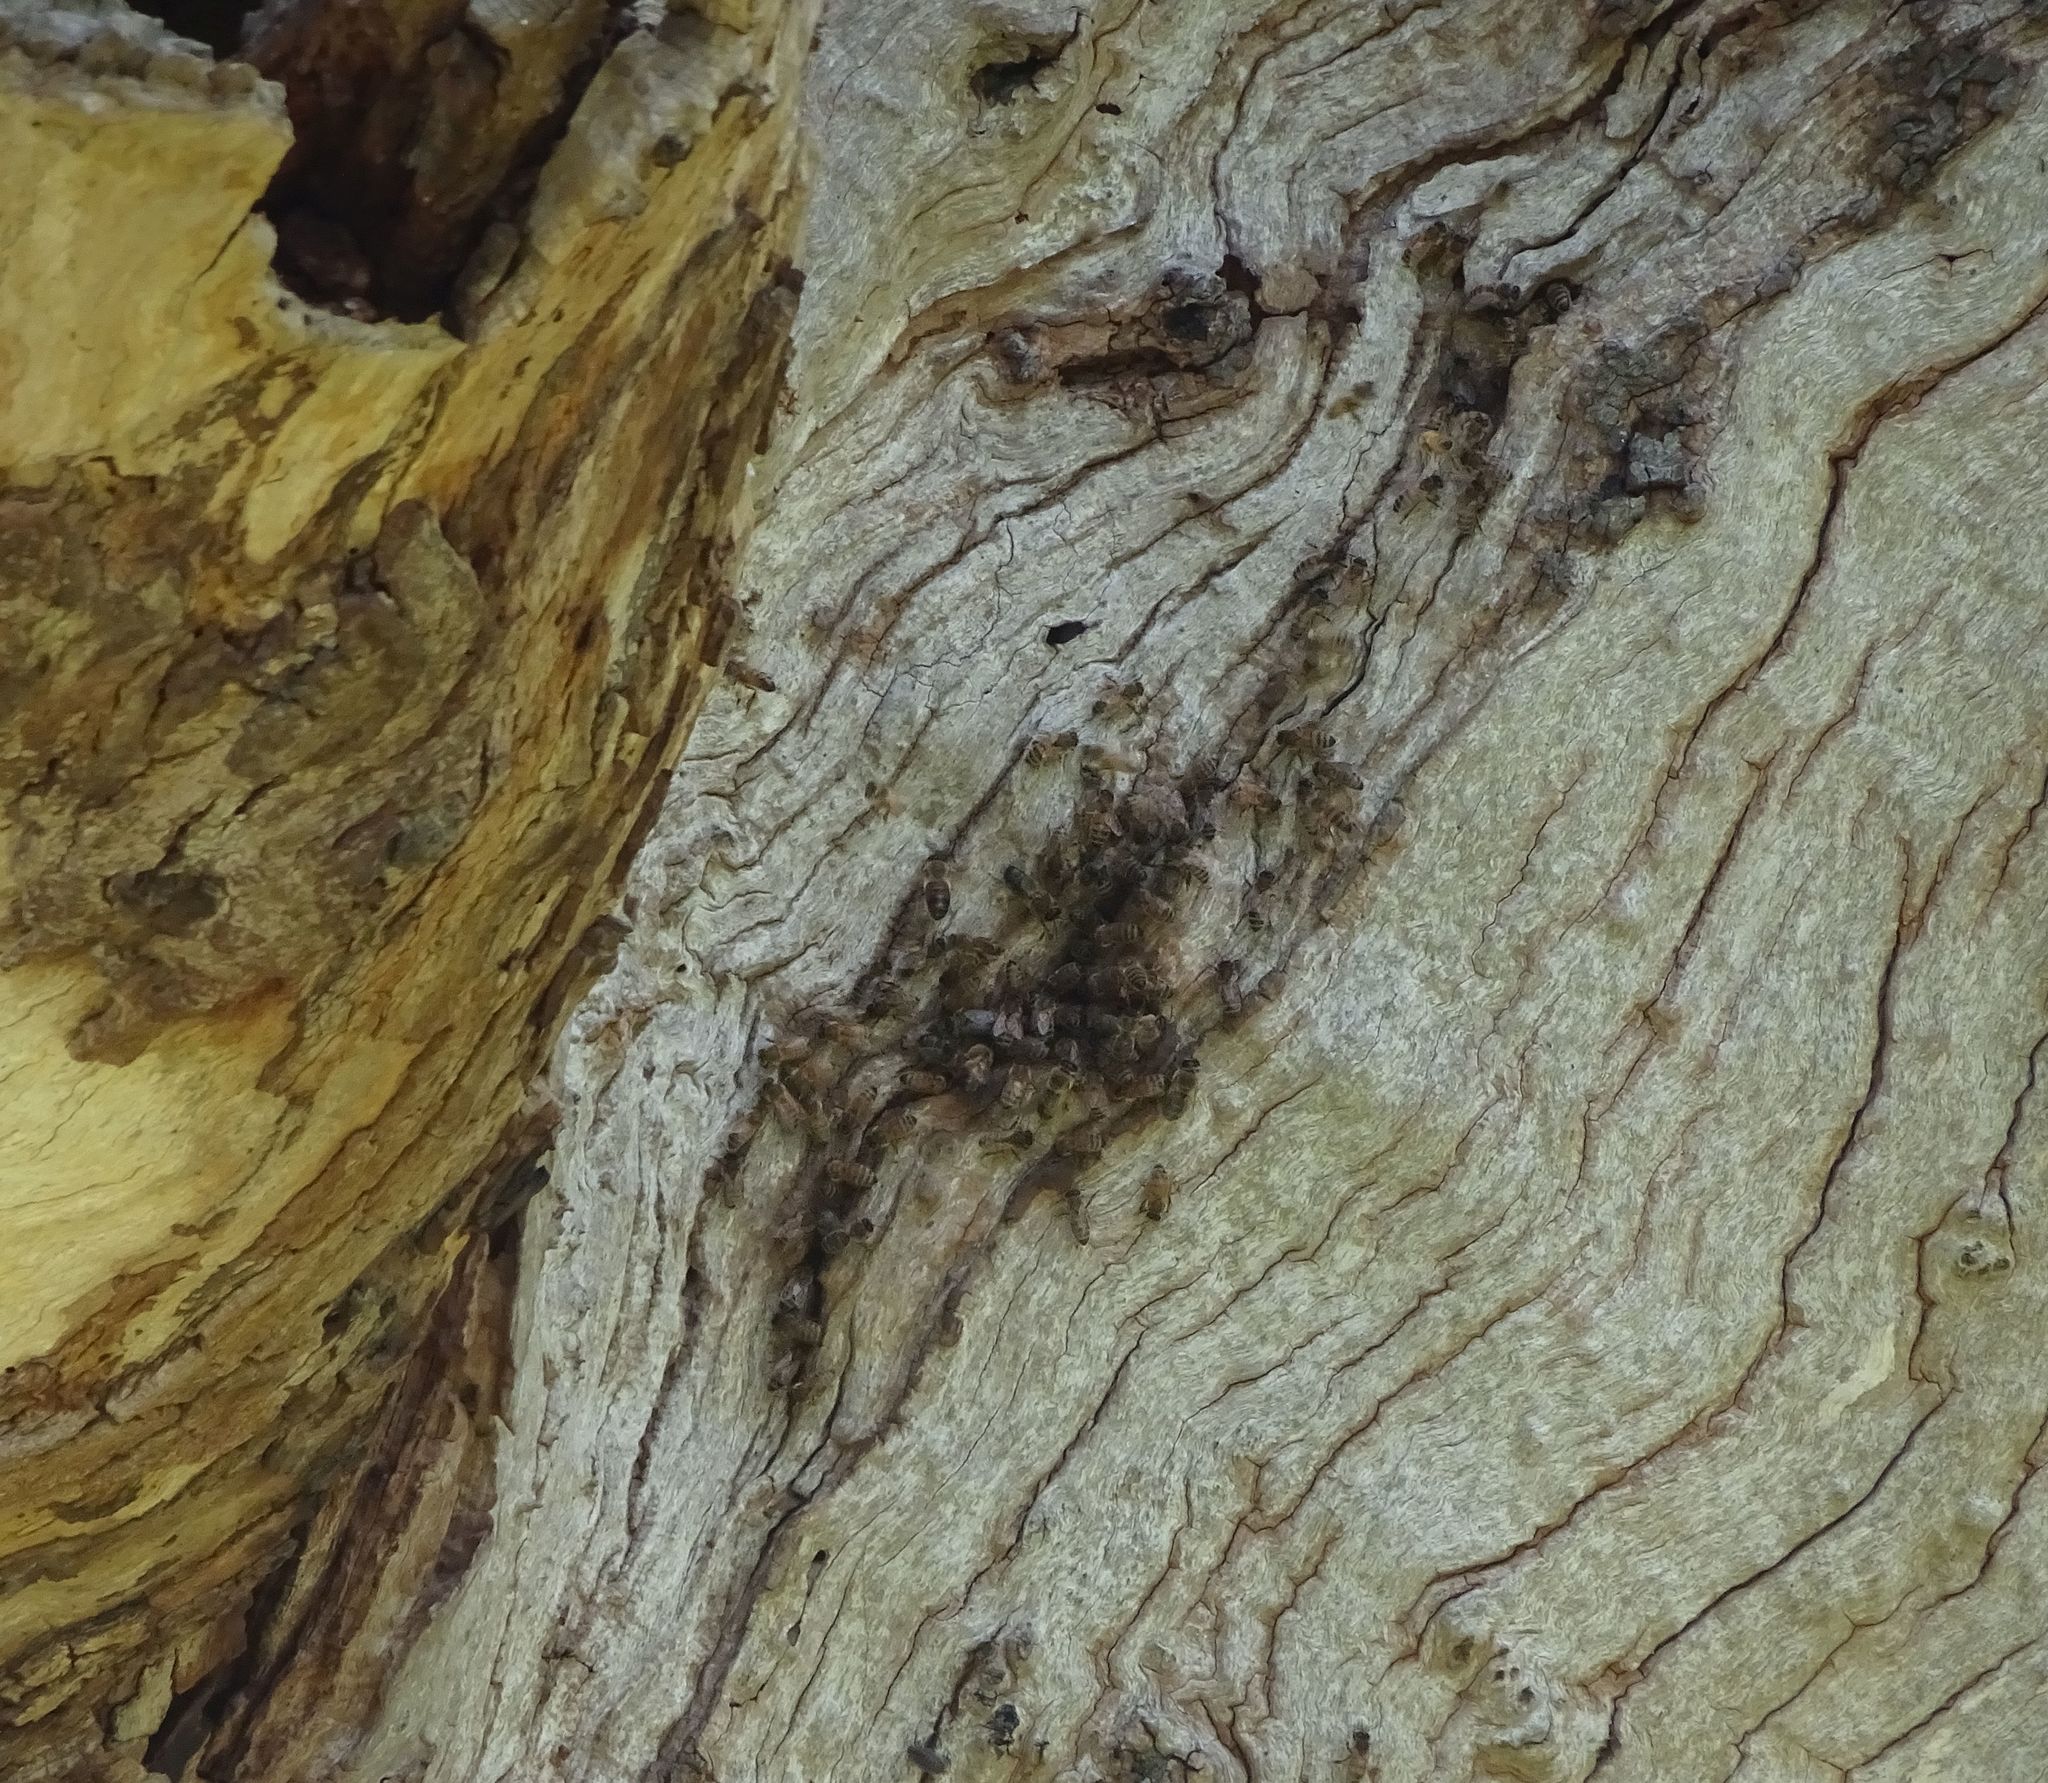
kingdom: Animalia
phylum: Arthropoda
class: Insecta
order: Hymenoptera
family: Apidae
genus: Apis
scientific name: Apis mellifera
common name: Honey bee
